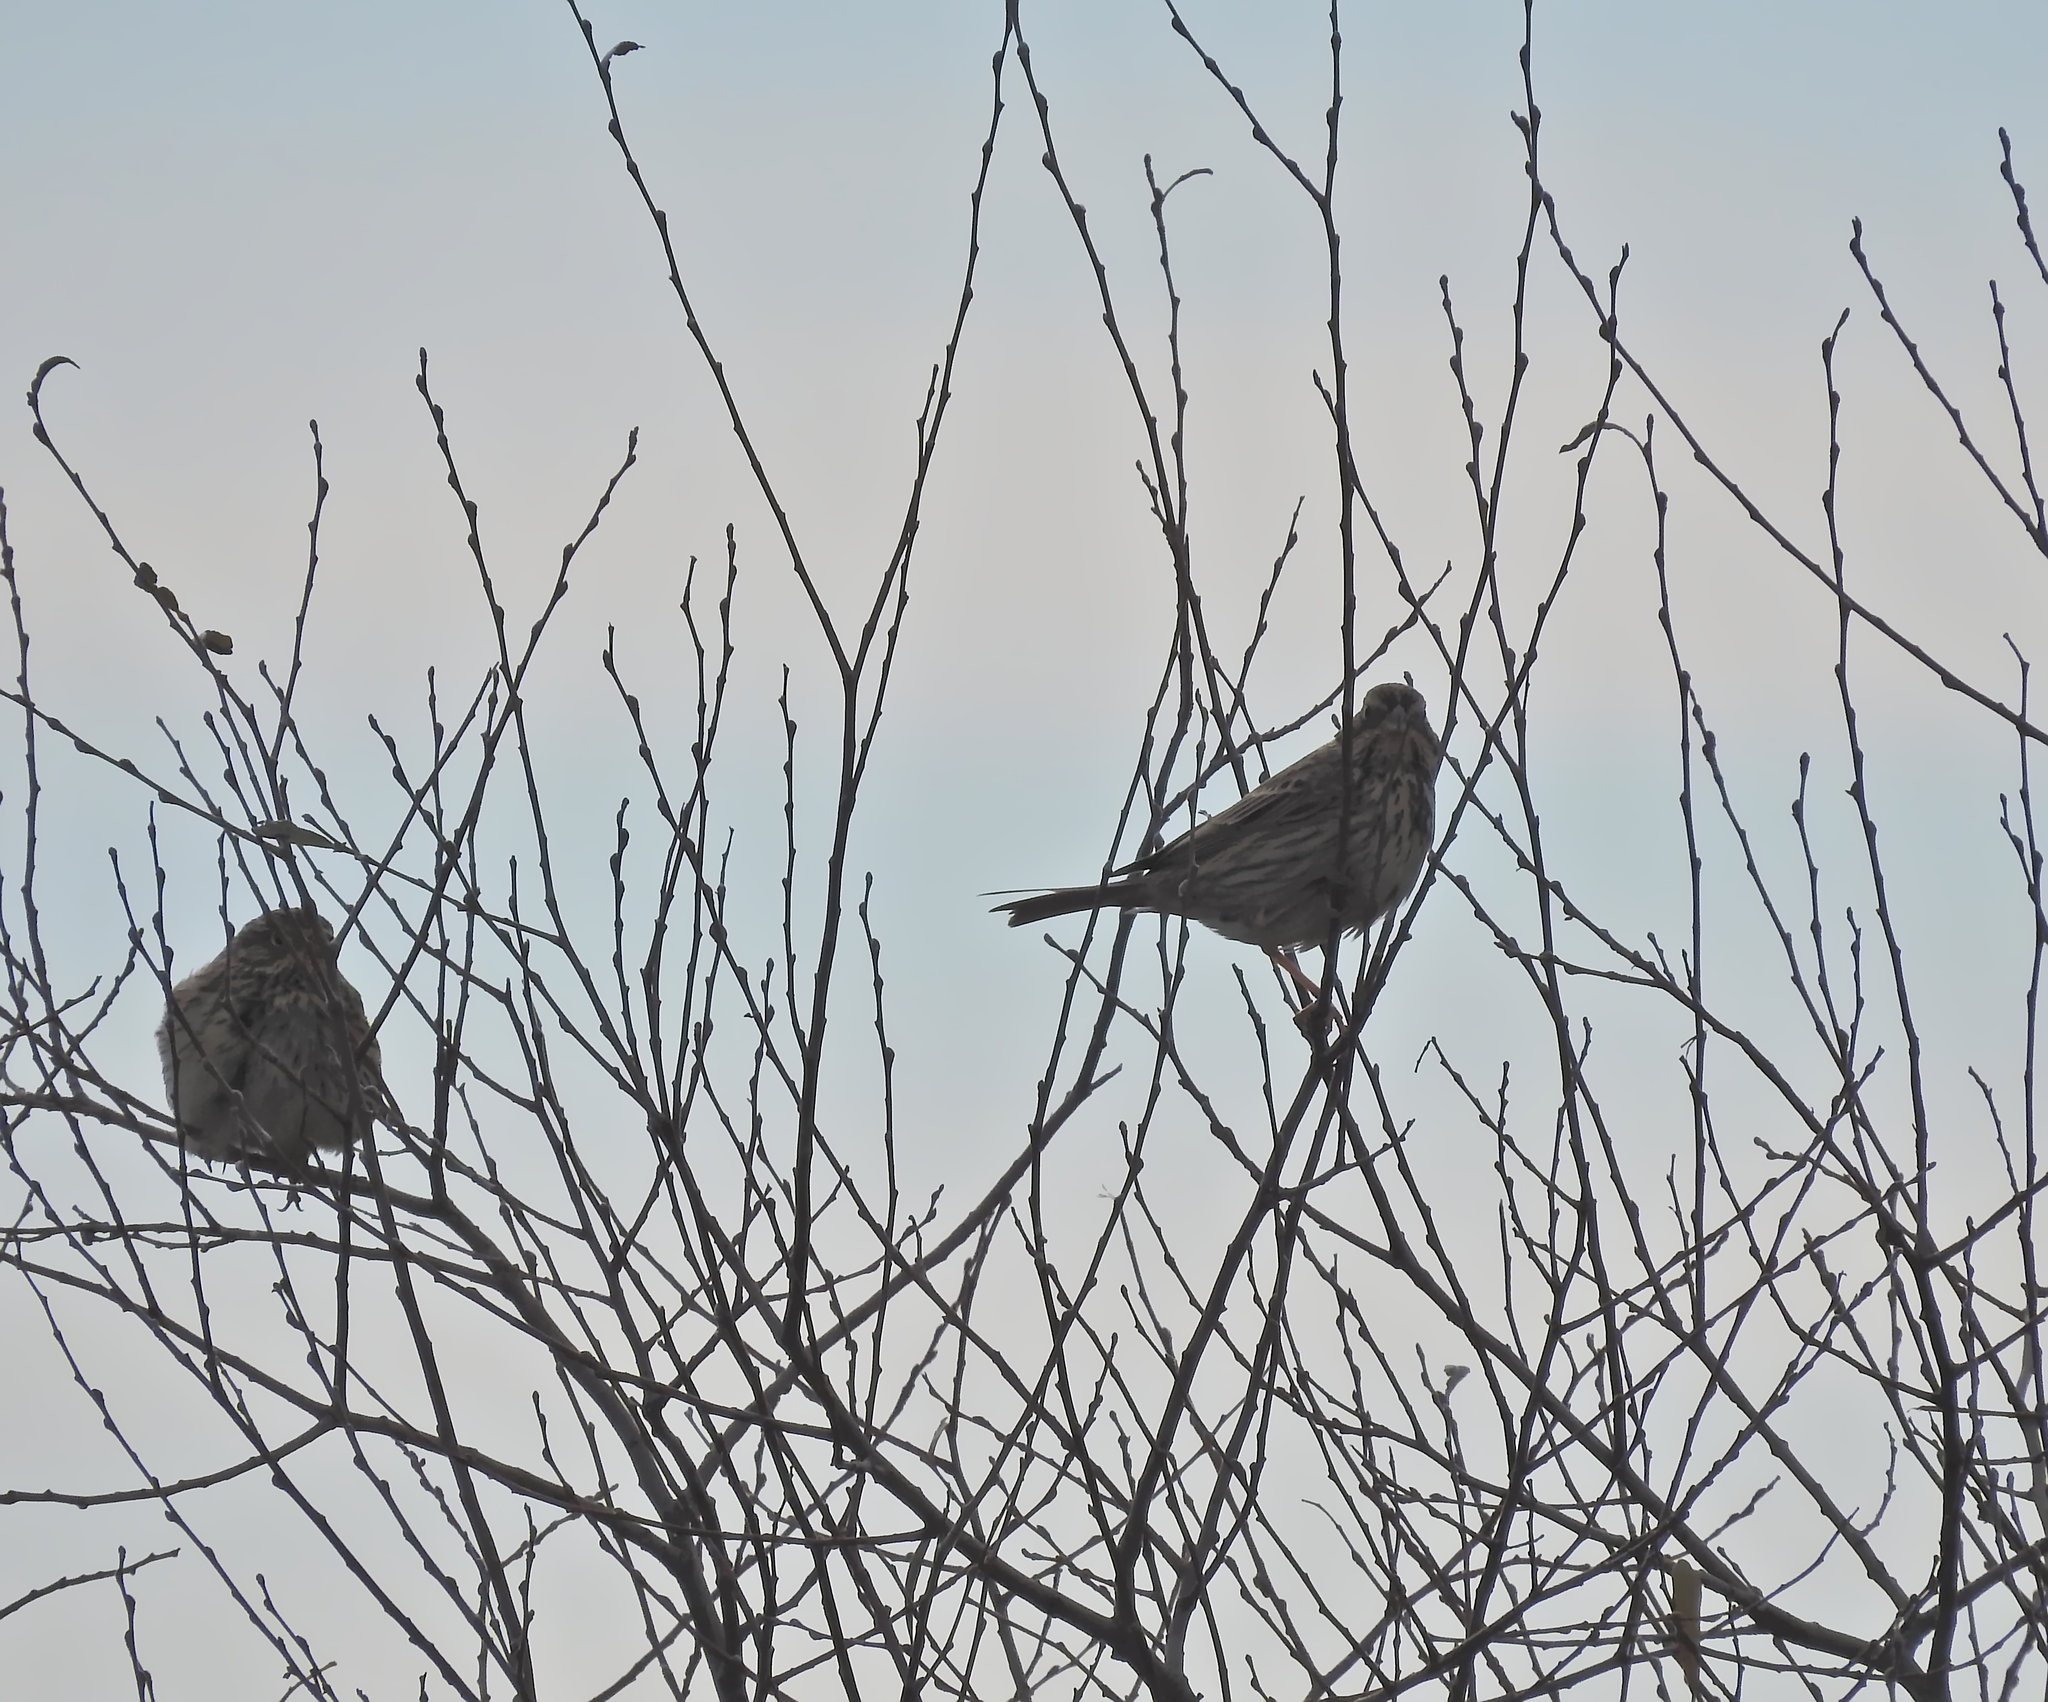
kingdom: Animalia
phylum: Chordata
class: Aves
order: Passeriformes
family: Emberizidae
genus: Emberiza
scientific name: Emberiza calandra
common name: Corn bunting
